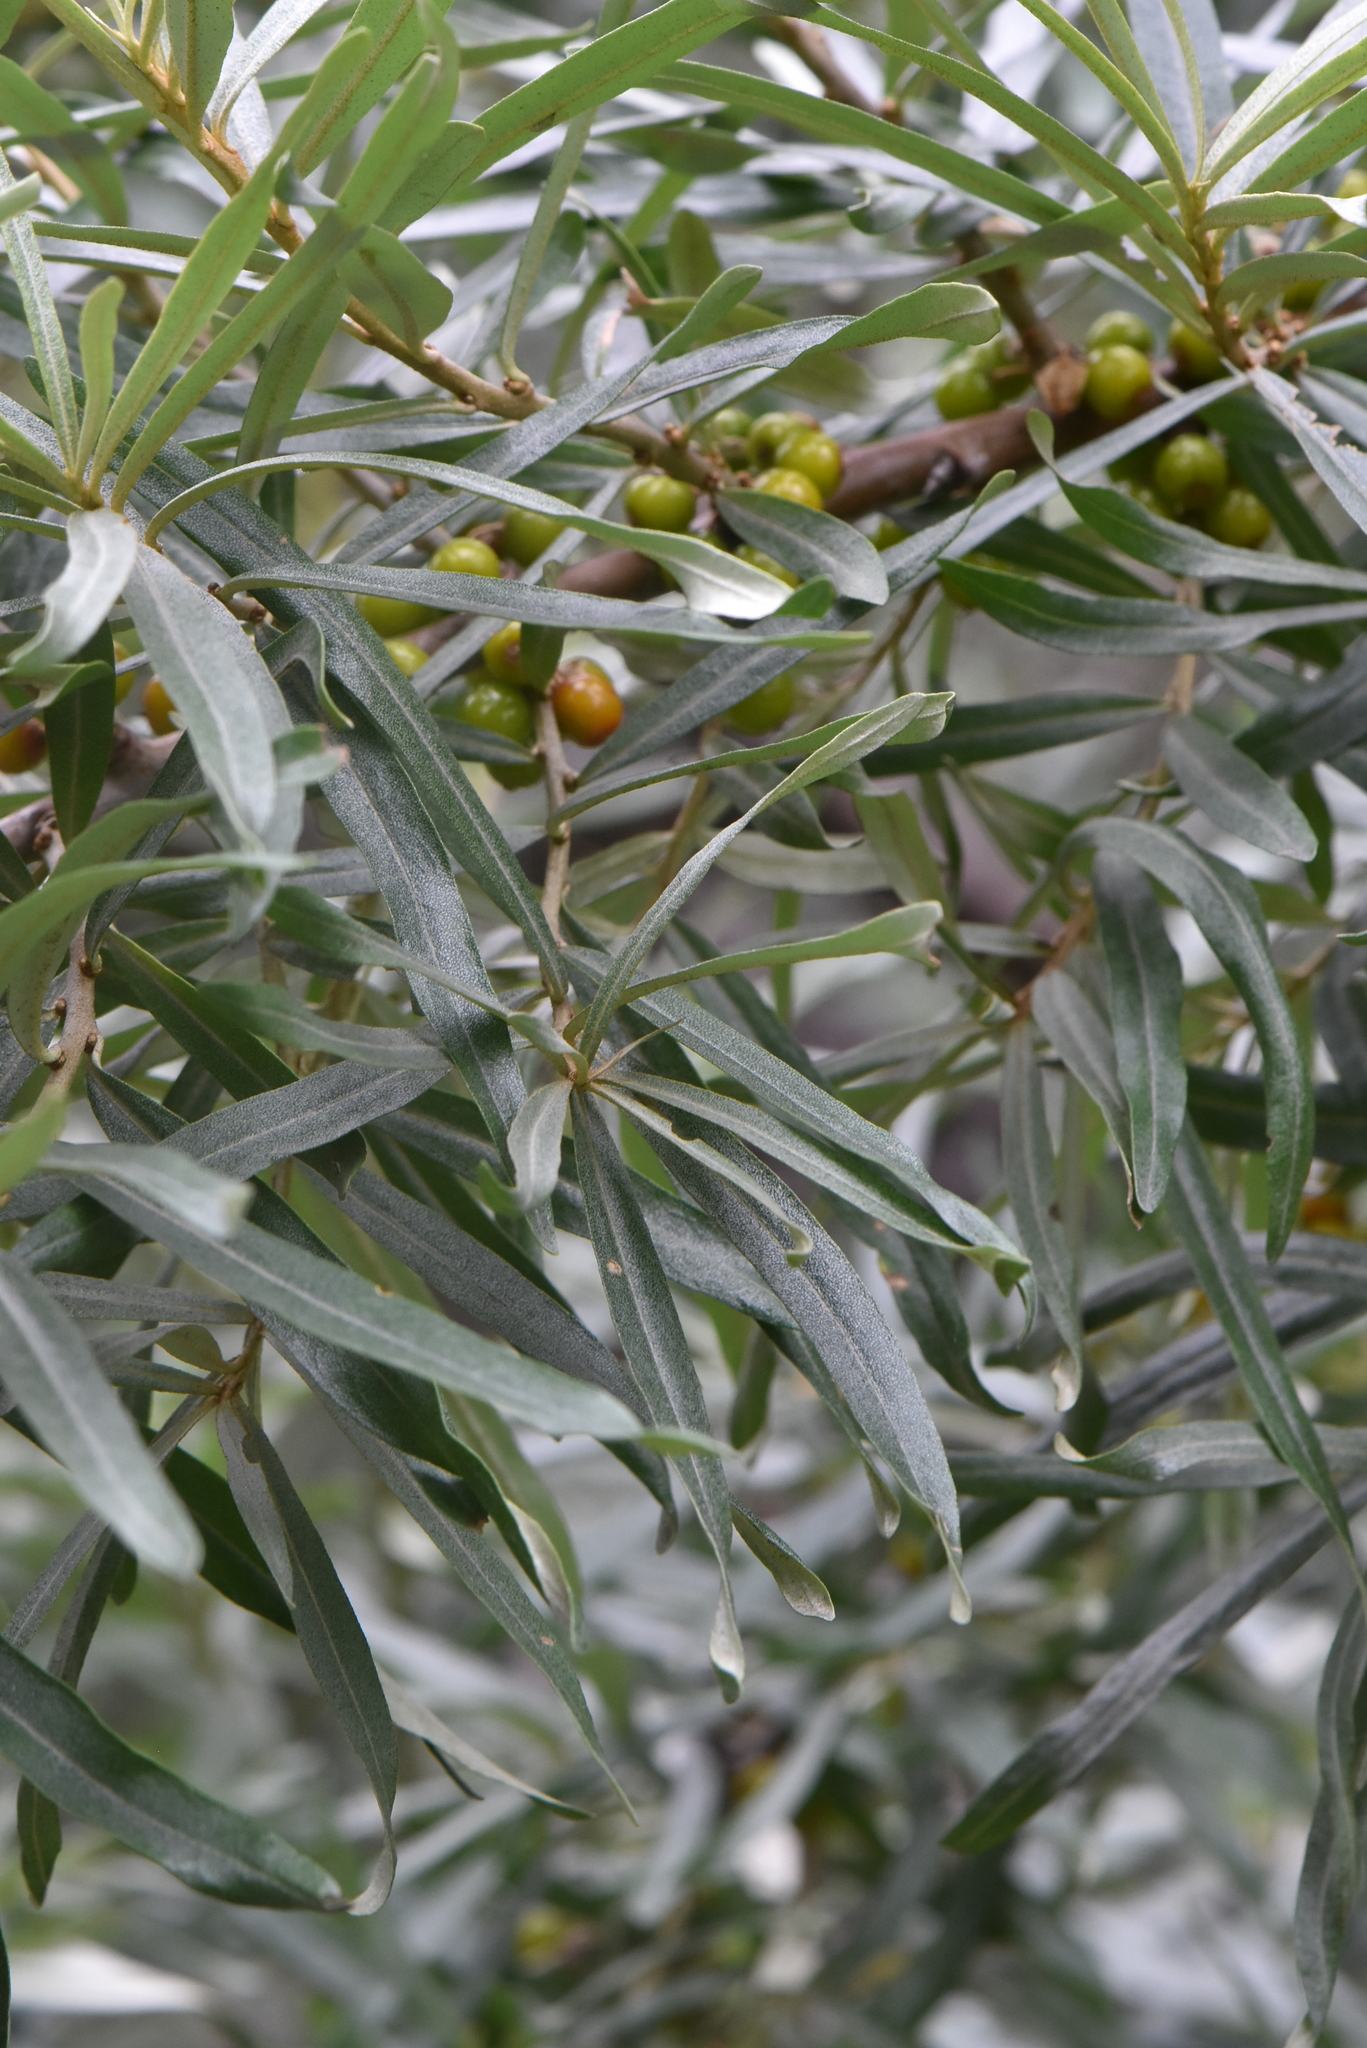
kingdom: Plantae
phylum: Tracheophyta
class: Magnoliopsida
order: Rosales
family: Elaeagnaceae
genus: Hippophae
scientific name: Hippophae rhamnoides
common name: Sea-buckthorn
